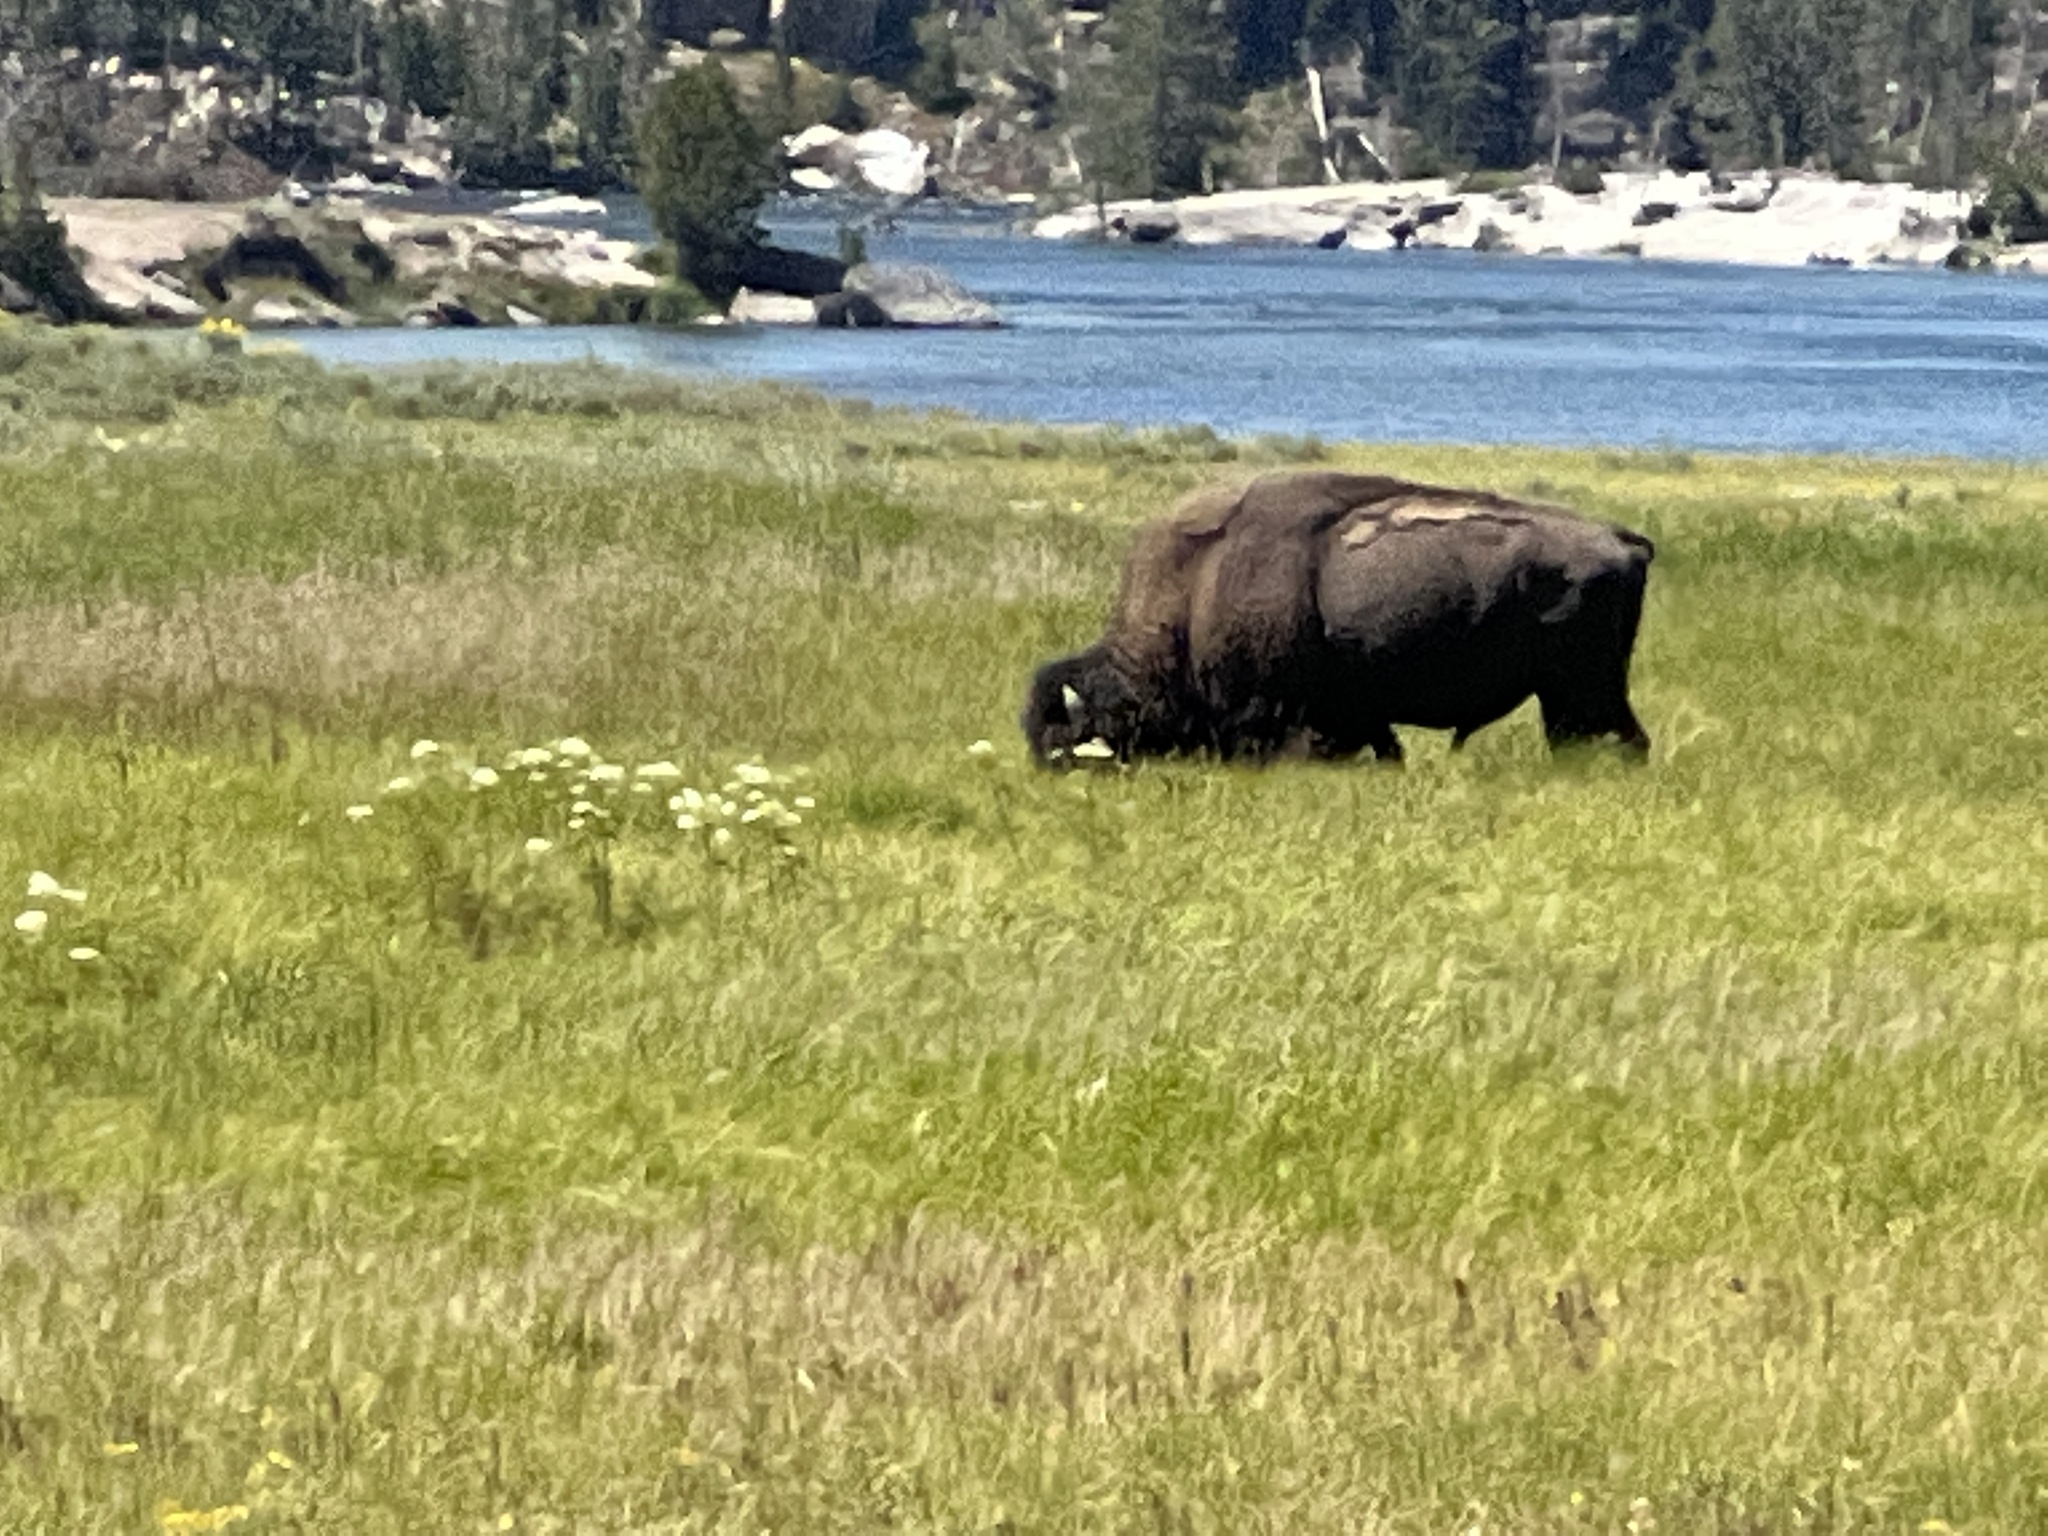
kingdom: Animalia
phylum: Chordata
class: Mammalia
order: Artiodactyla
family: Bovidae
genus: Bison
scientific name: Bison bison
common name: American bison
